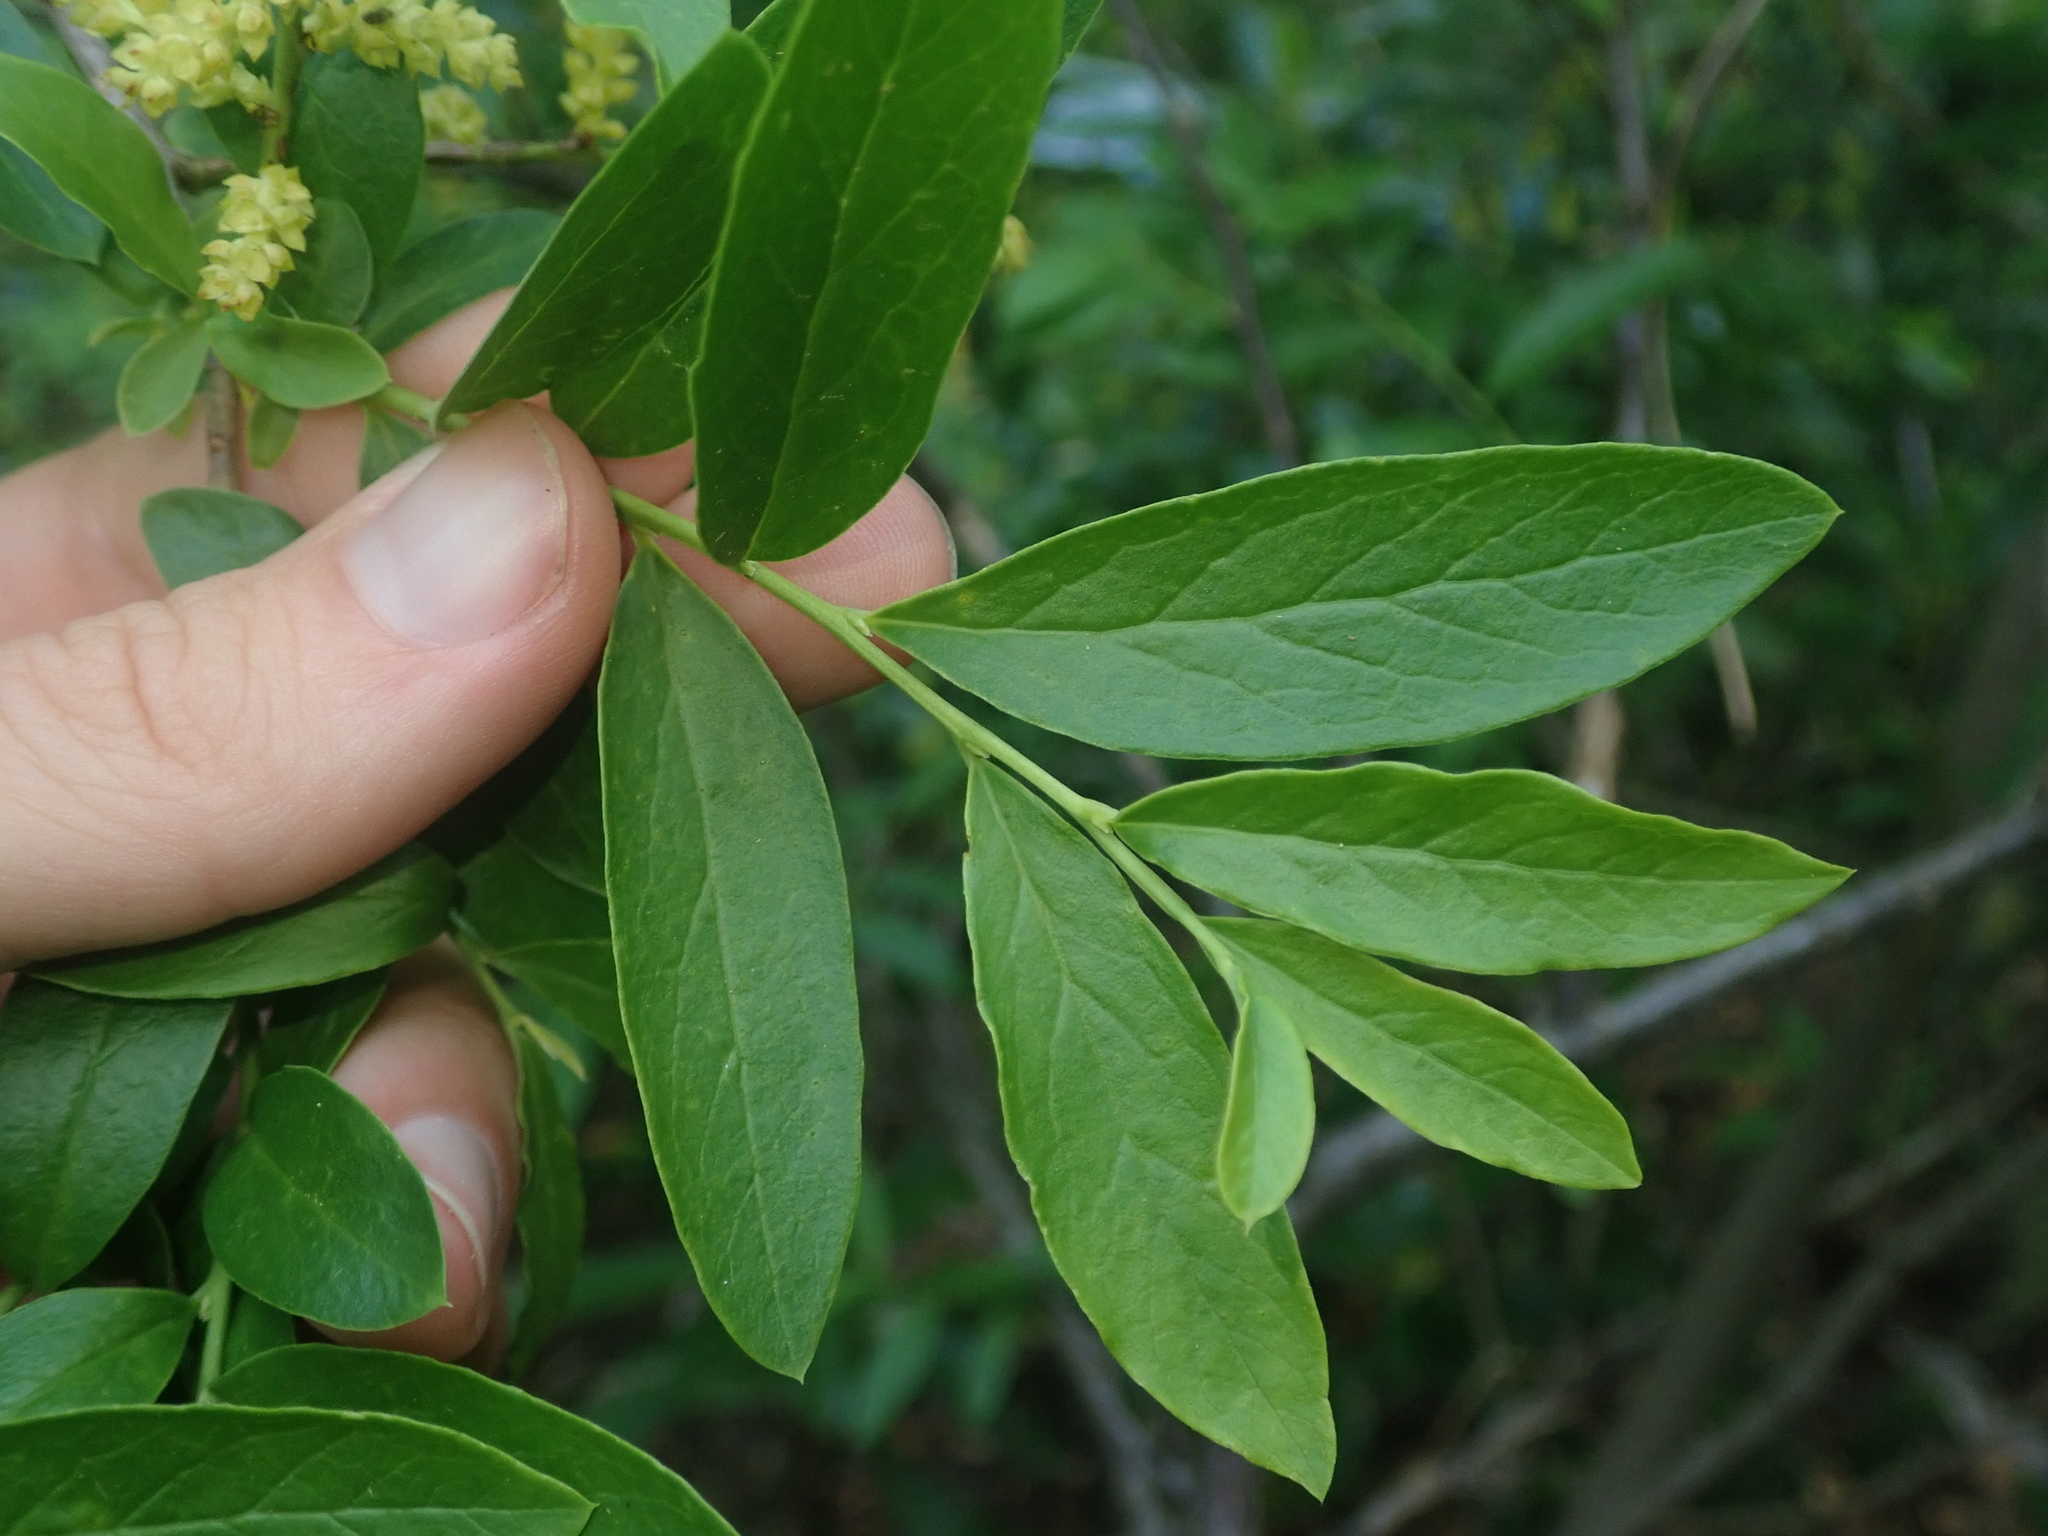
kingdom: Plantae
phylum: Tracheophyta
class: Magnoliopsida
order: Santalales
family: Santalaceae
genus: Myoschilos
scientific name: Myoschilos oblongum
